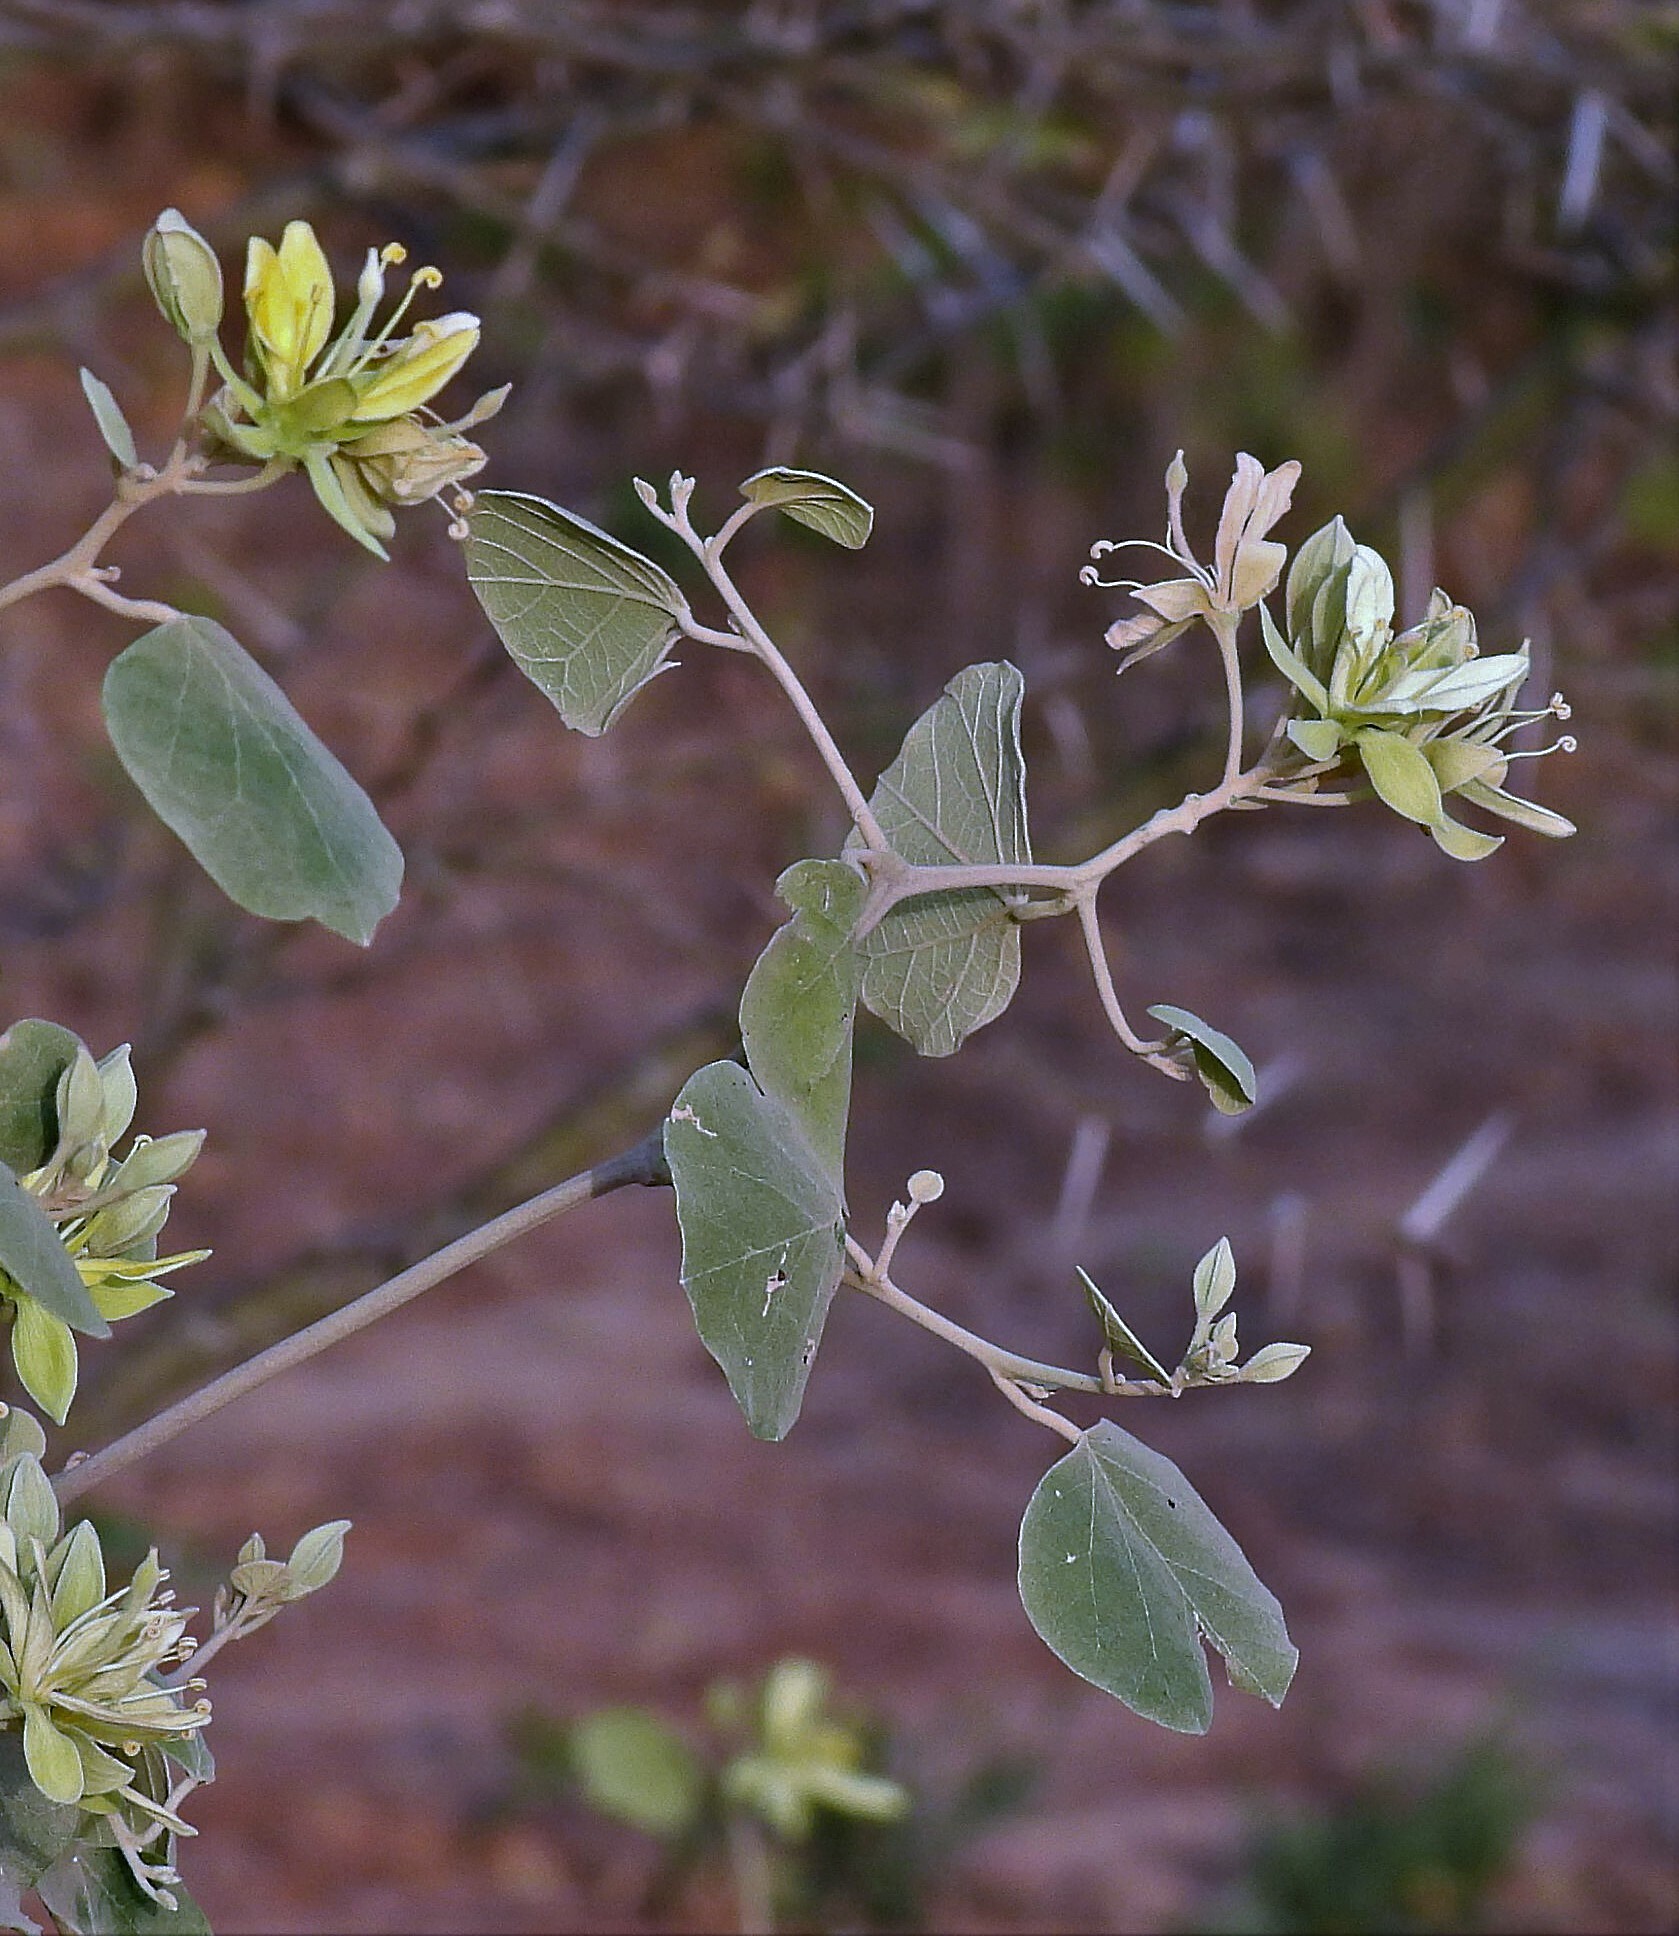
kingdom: Plantae
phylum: Tracheophyta
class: Magnoliopsida
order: Brassicales
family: Capparaceae
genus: Capparicordis
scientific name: Capparicordis tweedieana
